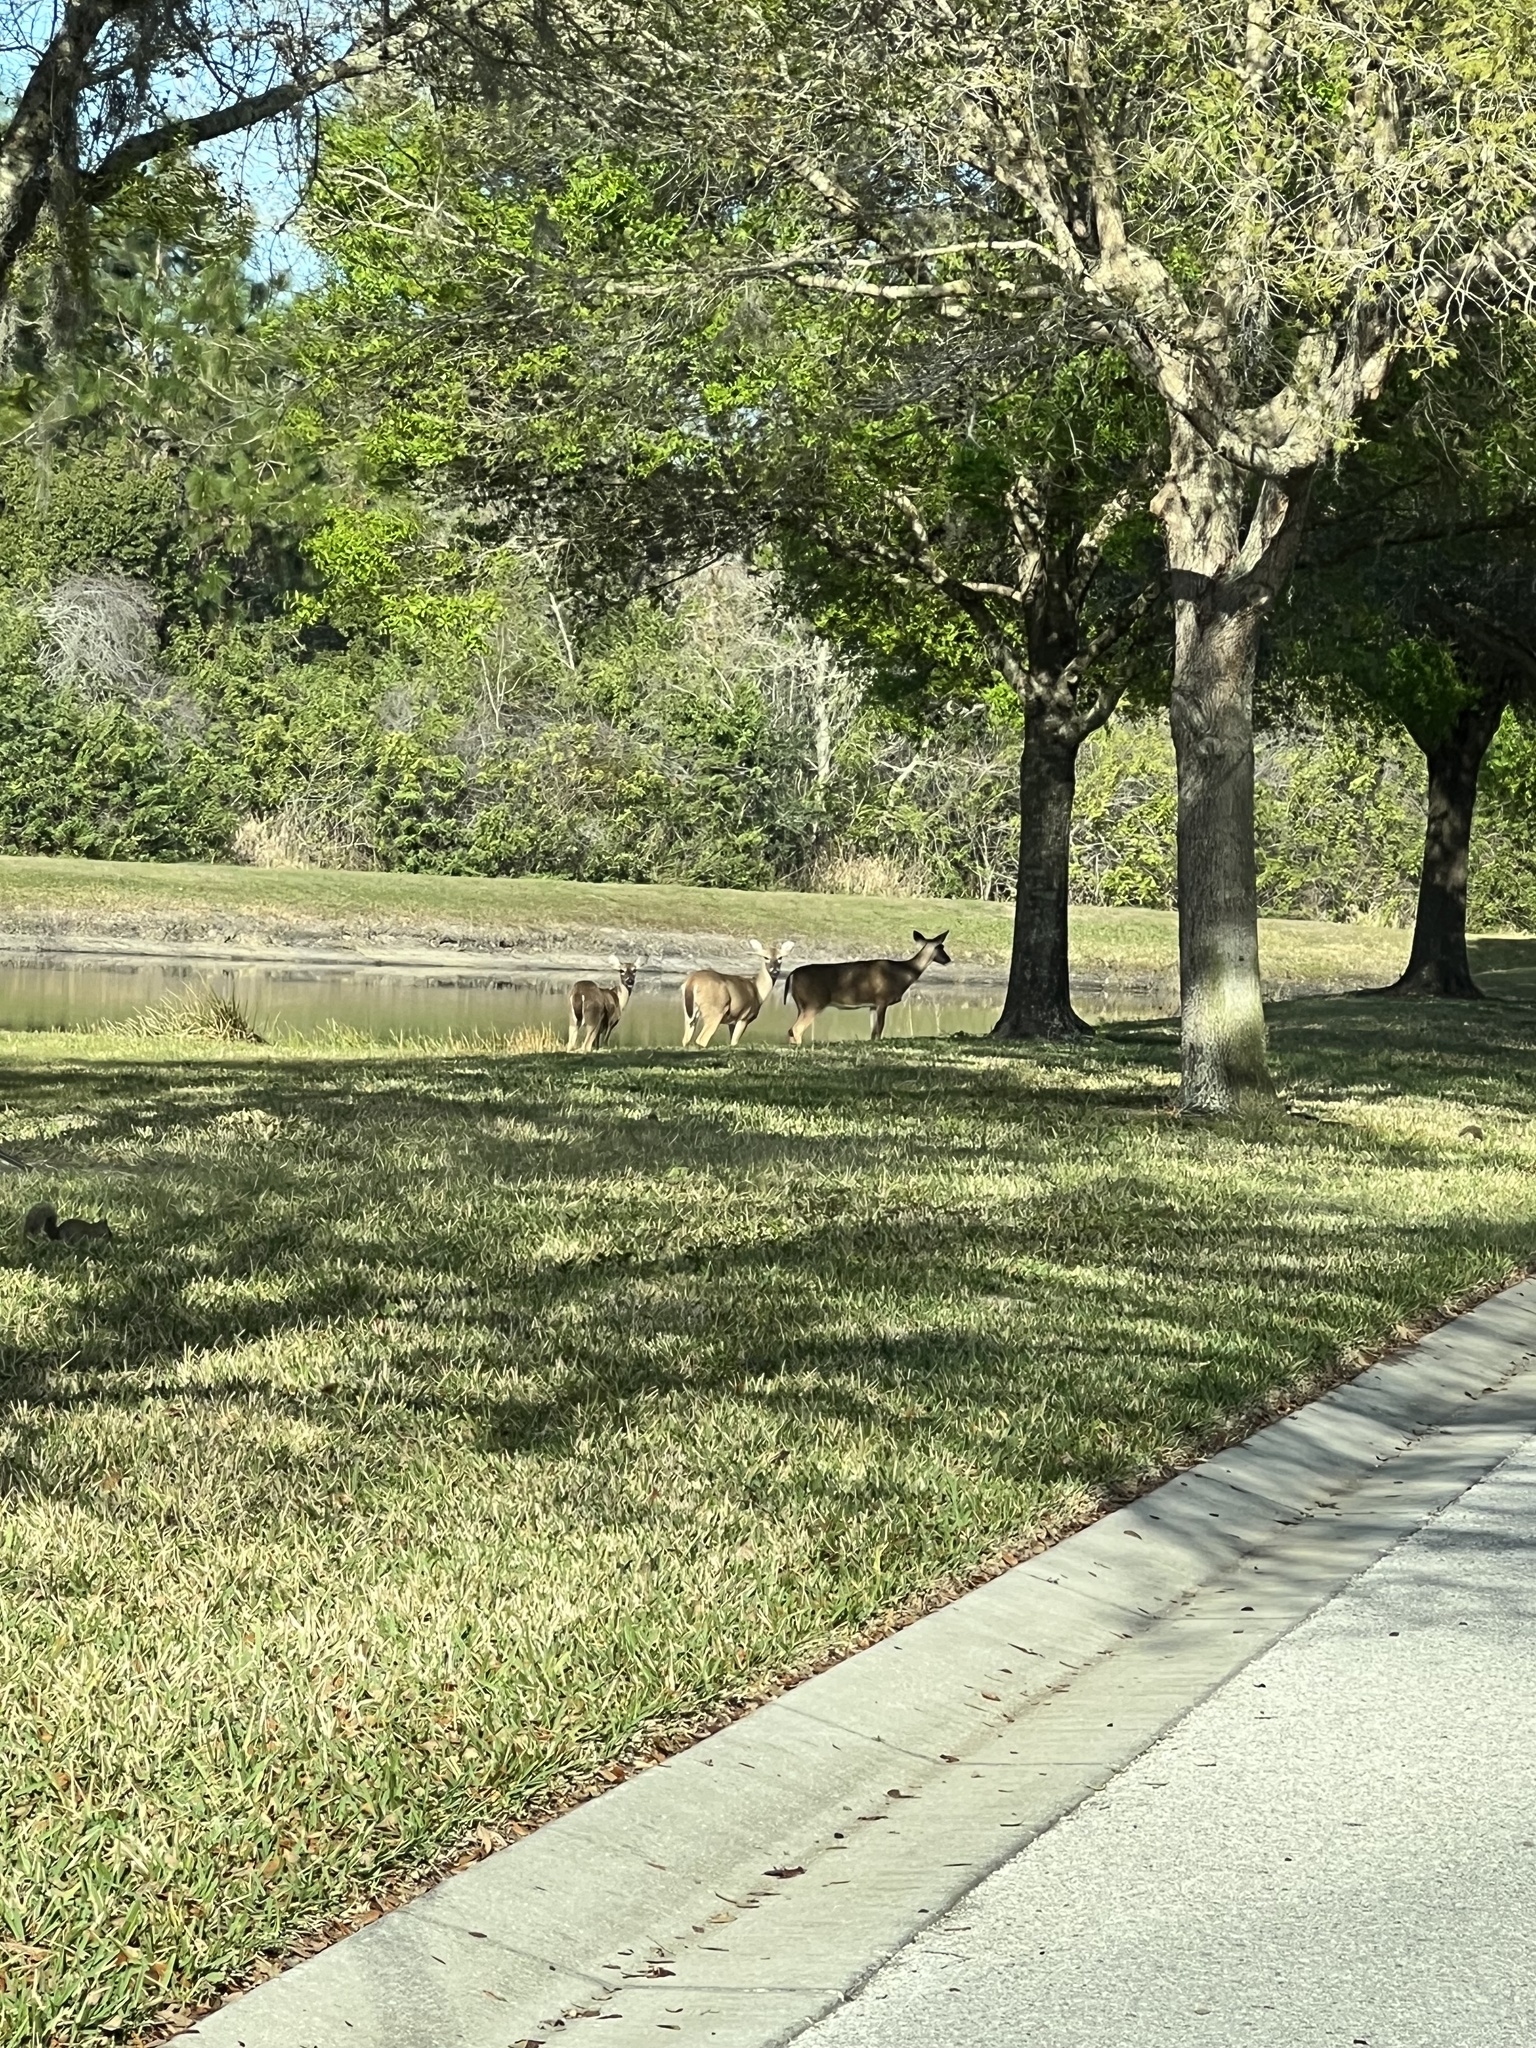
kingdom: Animalia
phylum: Chordata
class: Mammalia
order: Artiodactyla
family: Cervidae
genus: Odocoileus
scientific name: Odocoileus virginianus
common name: White-tailed deer
